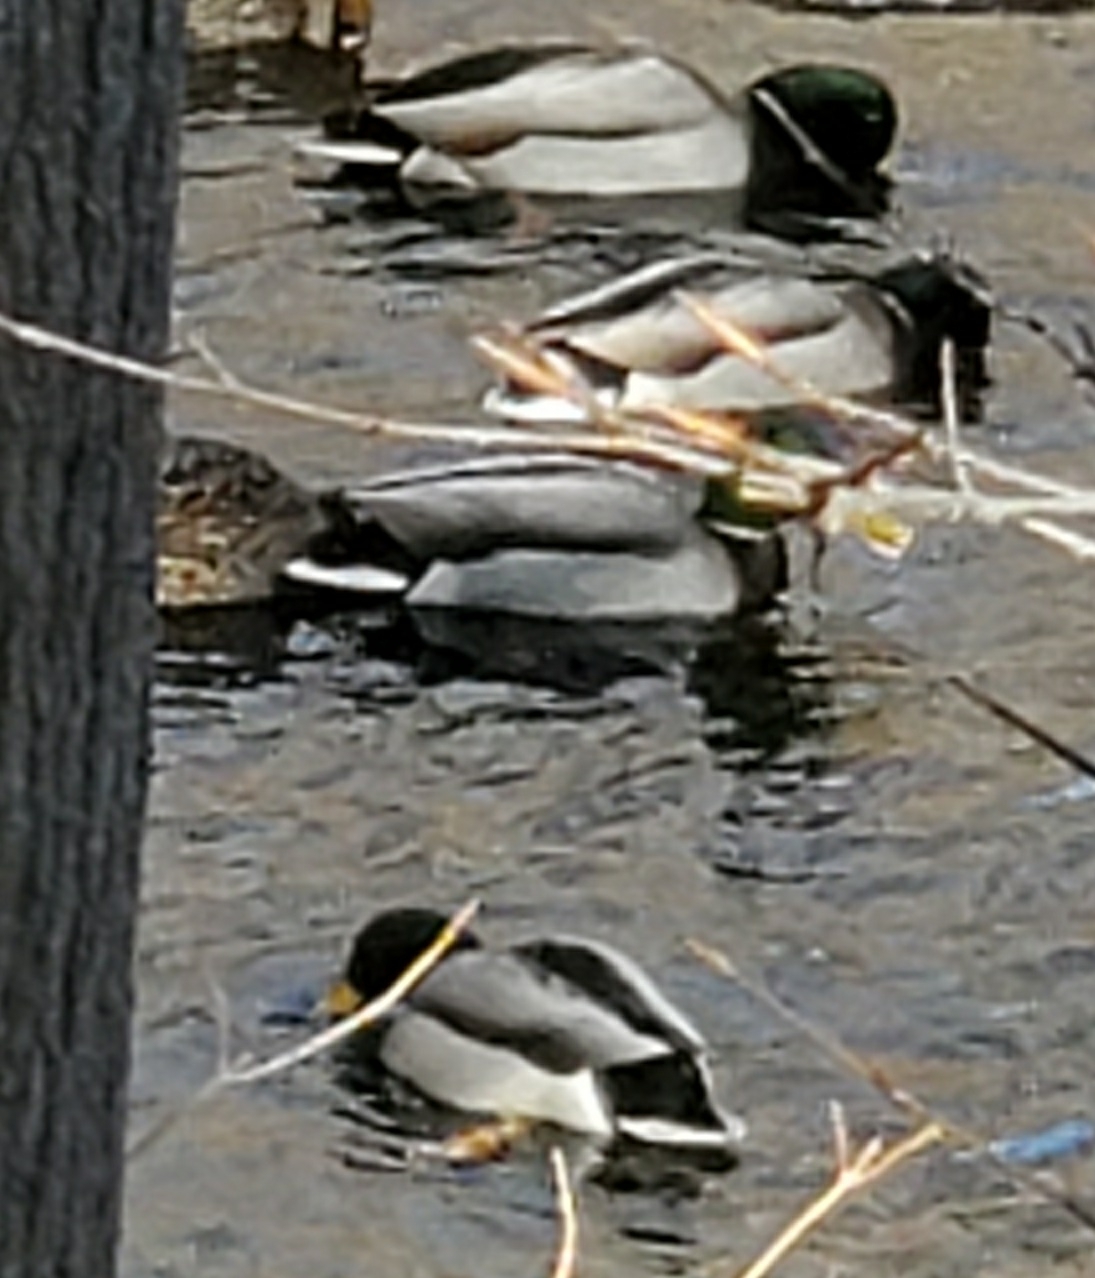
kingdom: Animalia
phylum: Chordata
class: Aves
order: Anseriformes
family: Anatidae
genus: Anas
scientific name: Anas platyrhynchos
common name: Mallard
